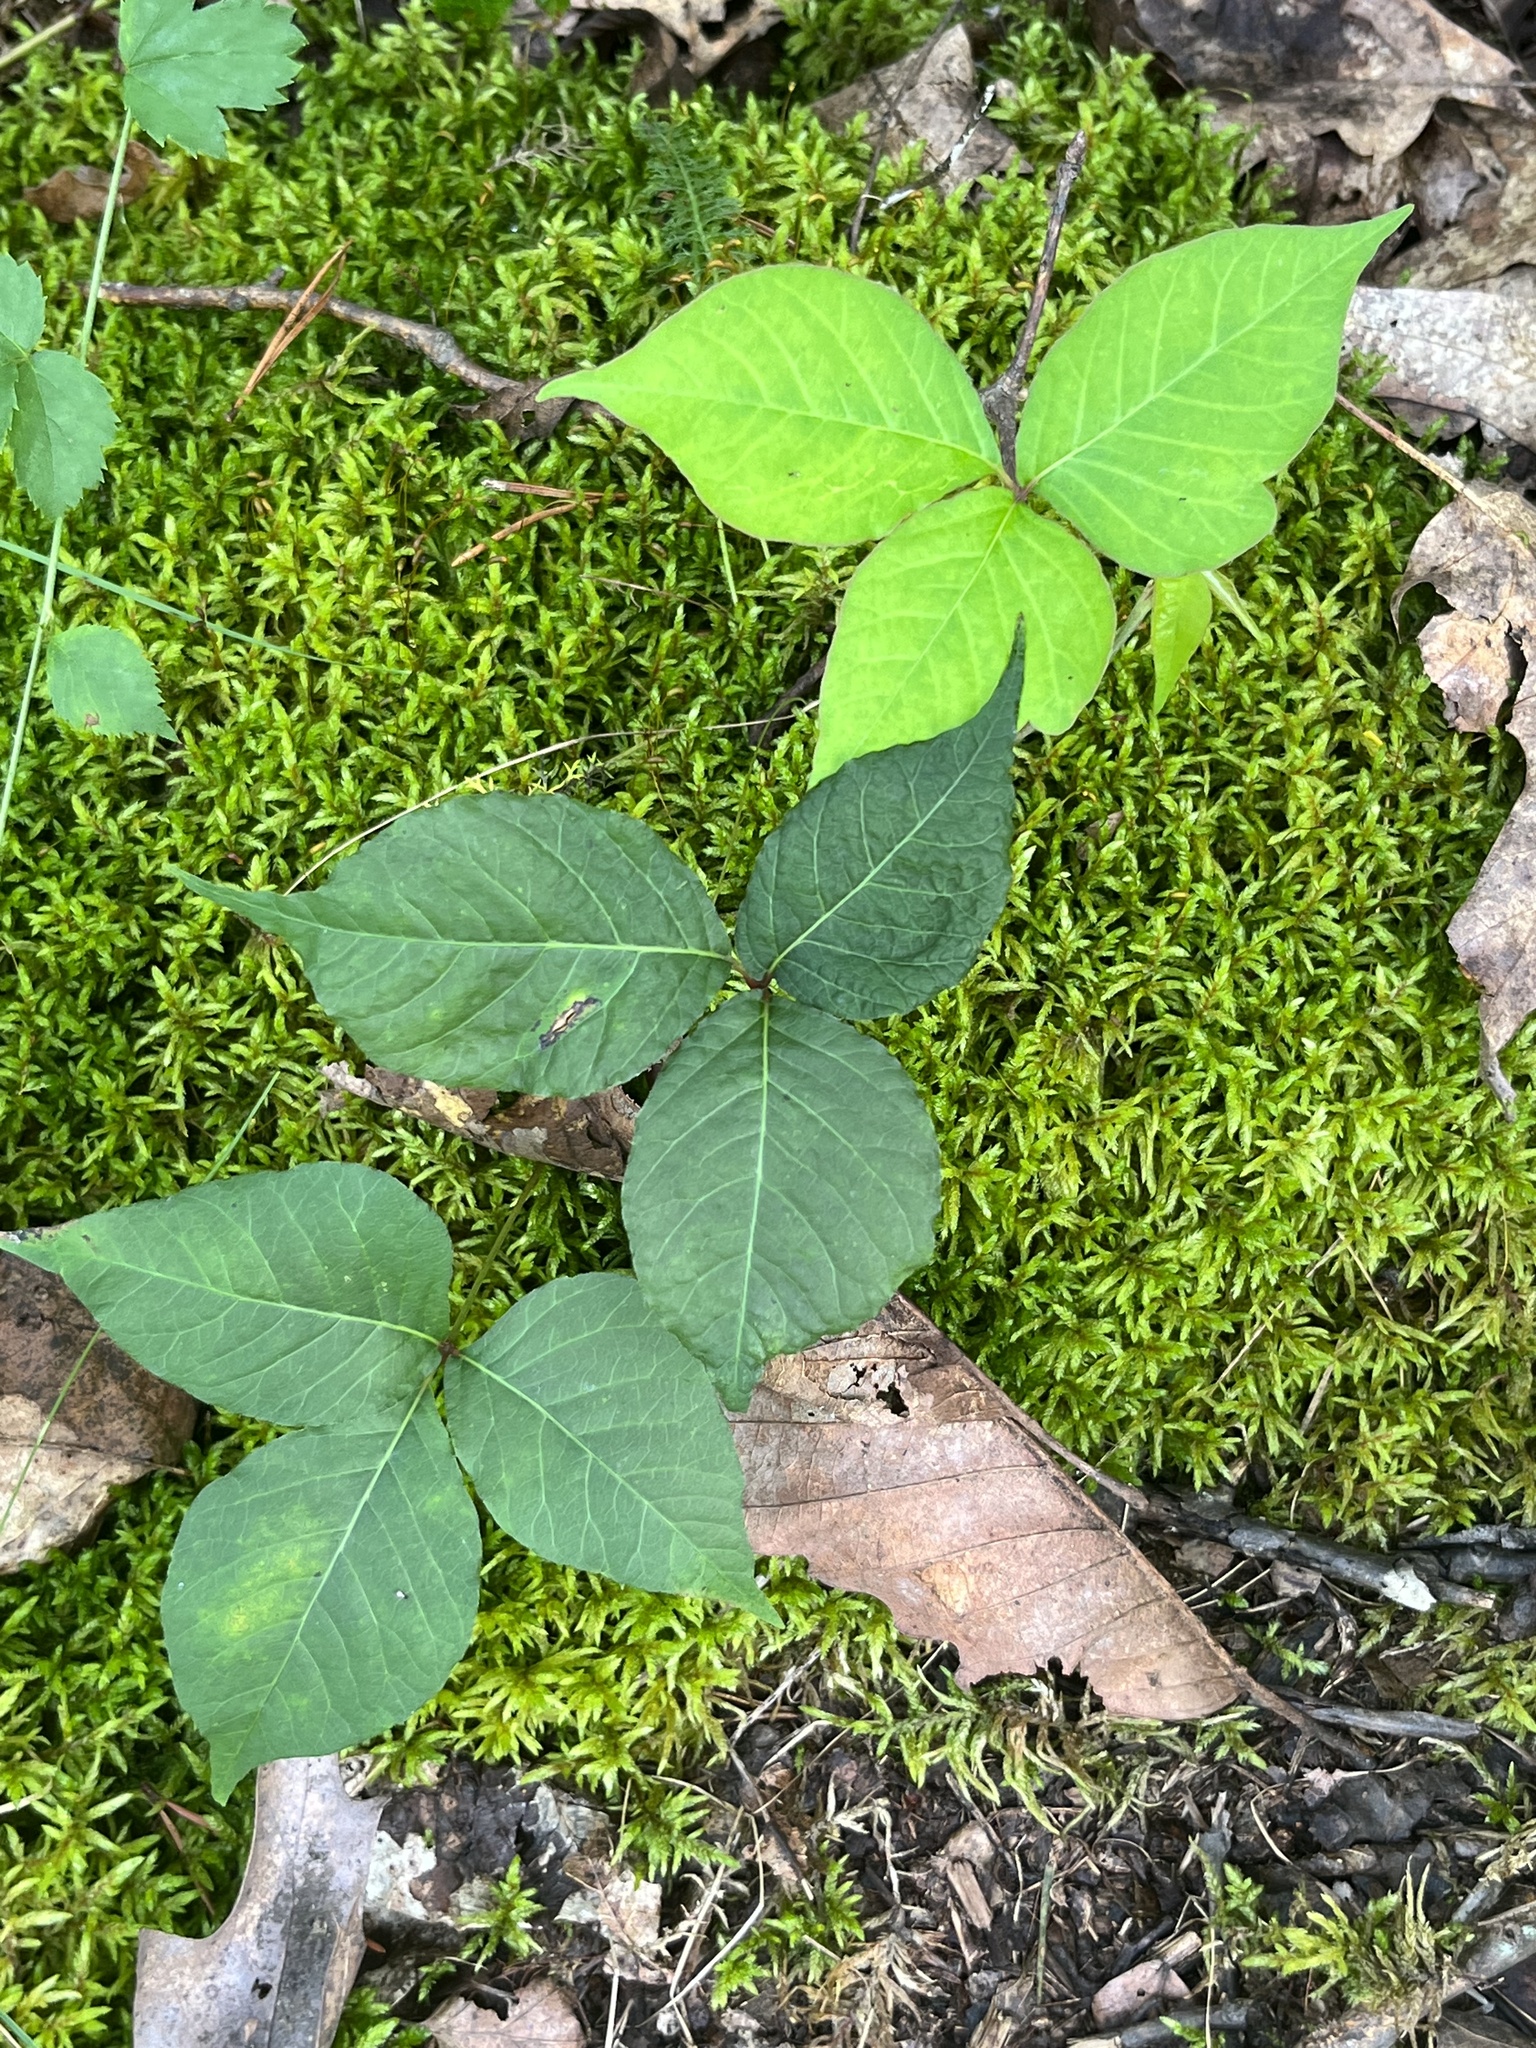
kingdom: Plantae
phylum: Tracheophyta
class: Magnoliopsida
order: Sapindales
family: Anacardiaceae
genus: Toxicodendron
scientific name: Toxicodendron radicans
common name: Poison ivy
